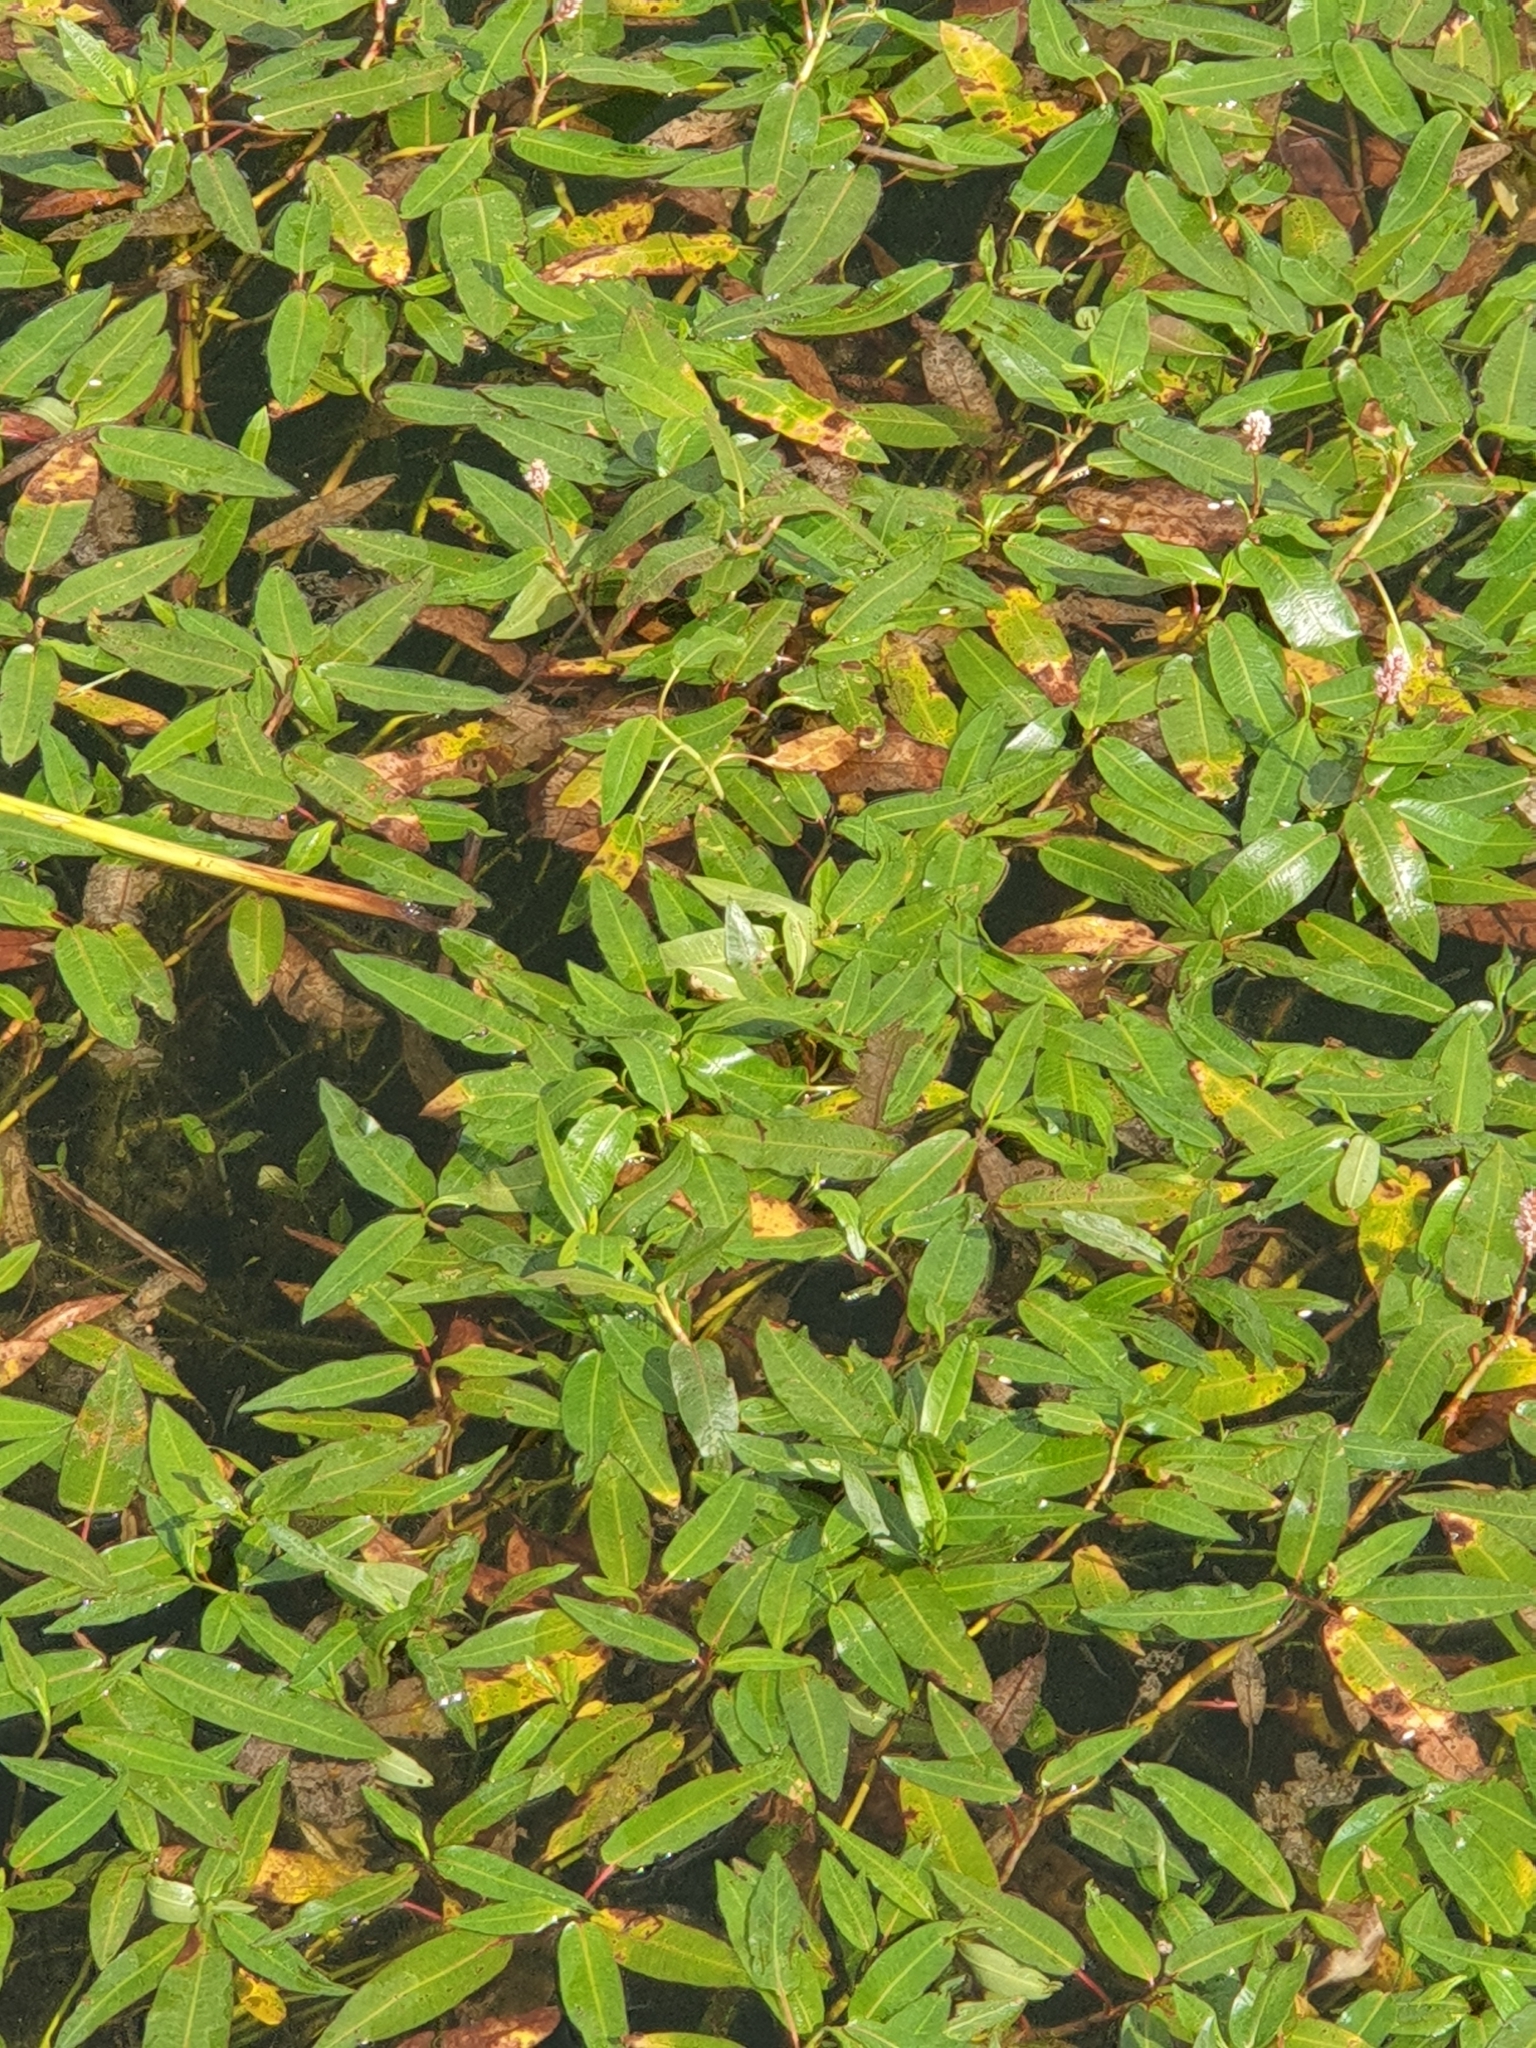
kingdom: Plantae
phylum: Tracheophyta
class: Magnoliopsida
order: Caryophyllales
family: Polygonaceae
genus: Persicaria
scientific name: Persicaria amphibia
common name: Amphibious bistort
